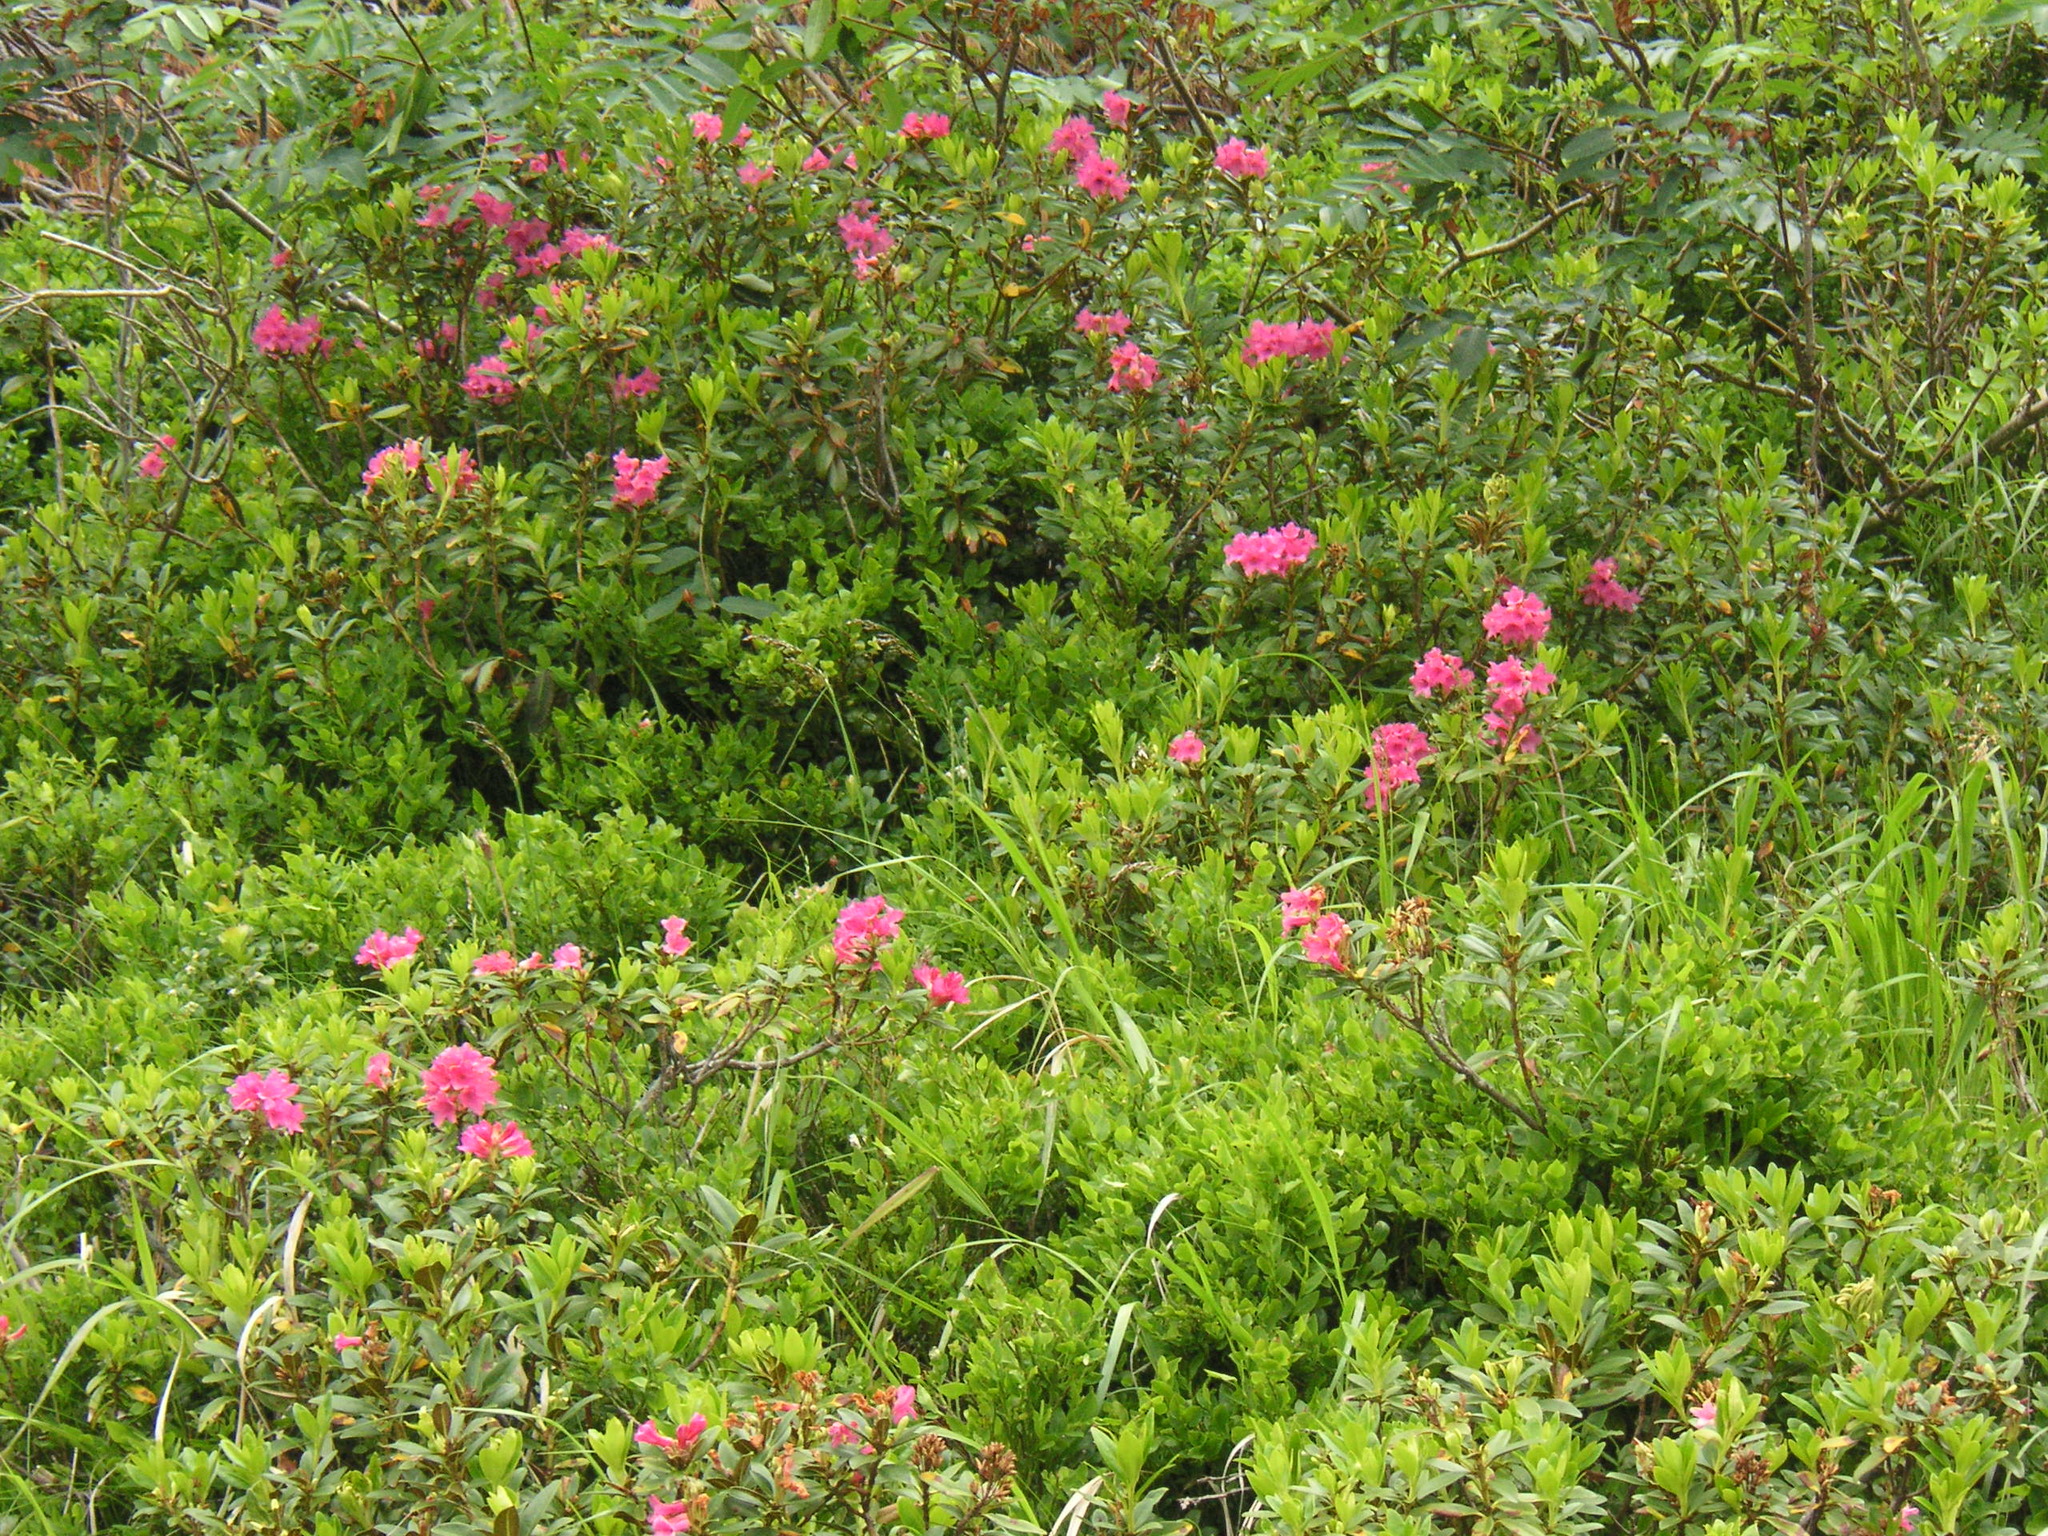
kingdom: Plantae
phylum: Tracheophyta
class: Magnoliopsida
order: Ericales
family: Ericaceae
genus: Rhododendron
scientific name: Rhododendron ferrugineum
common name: Alpenrose
